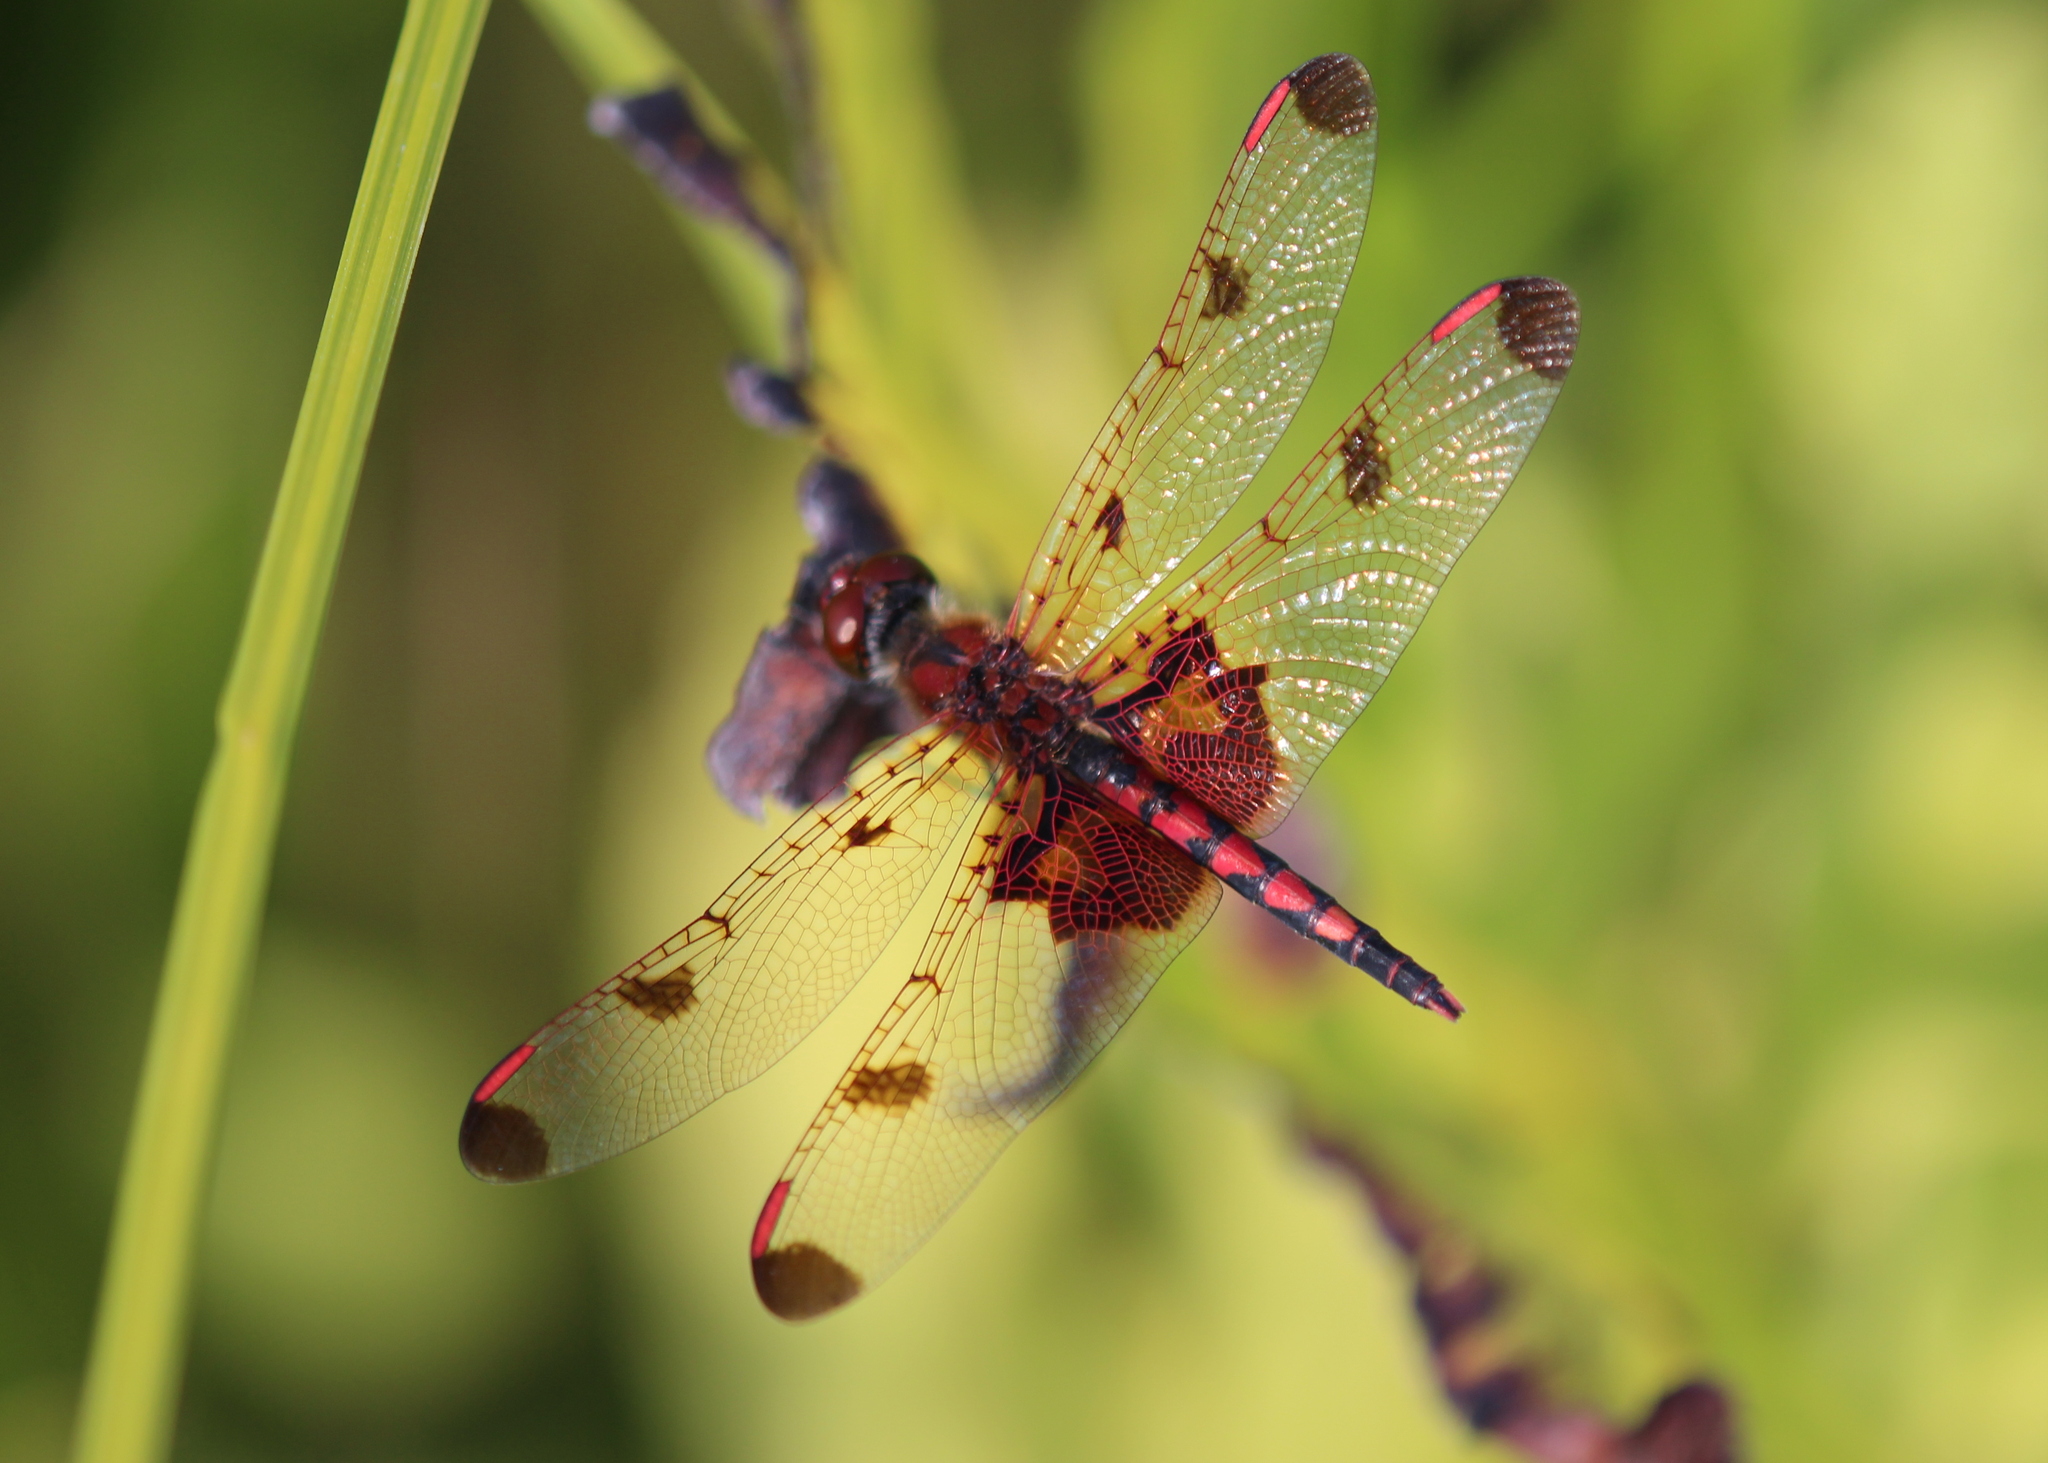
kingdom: Animalia
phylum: Arthropoda
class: Insecta
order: Odonata
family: Libellulidae
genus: Celithemis
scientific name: Celithemis elisa
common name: Calico pennant
